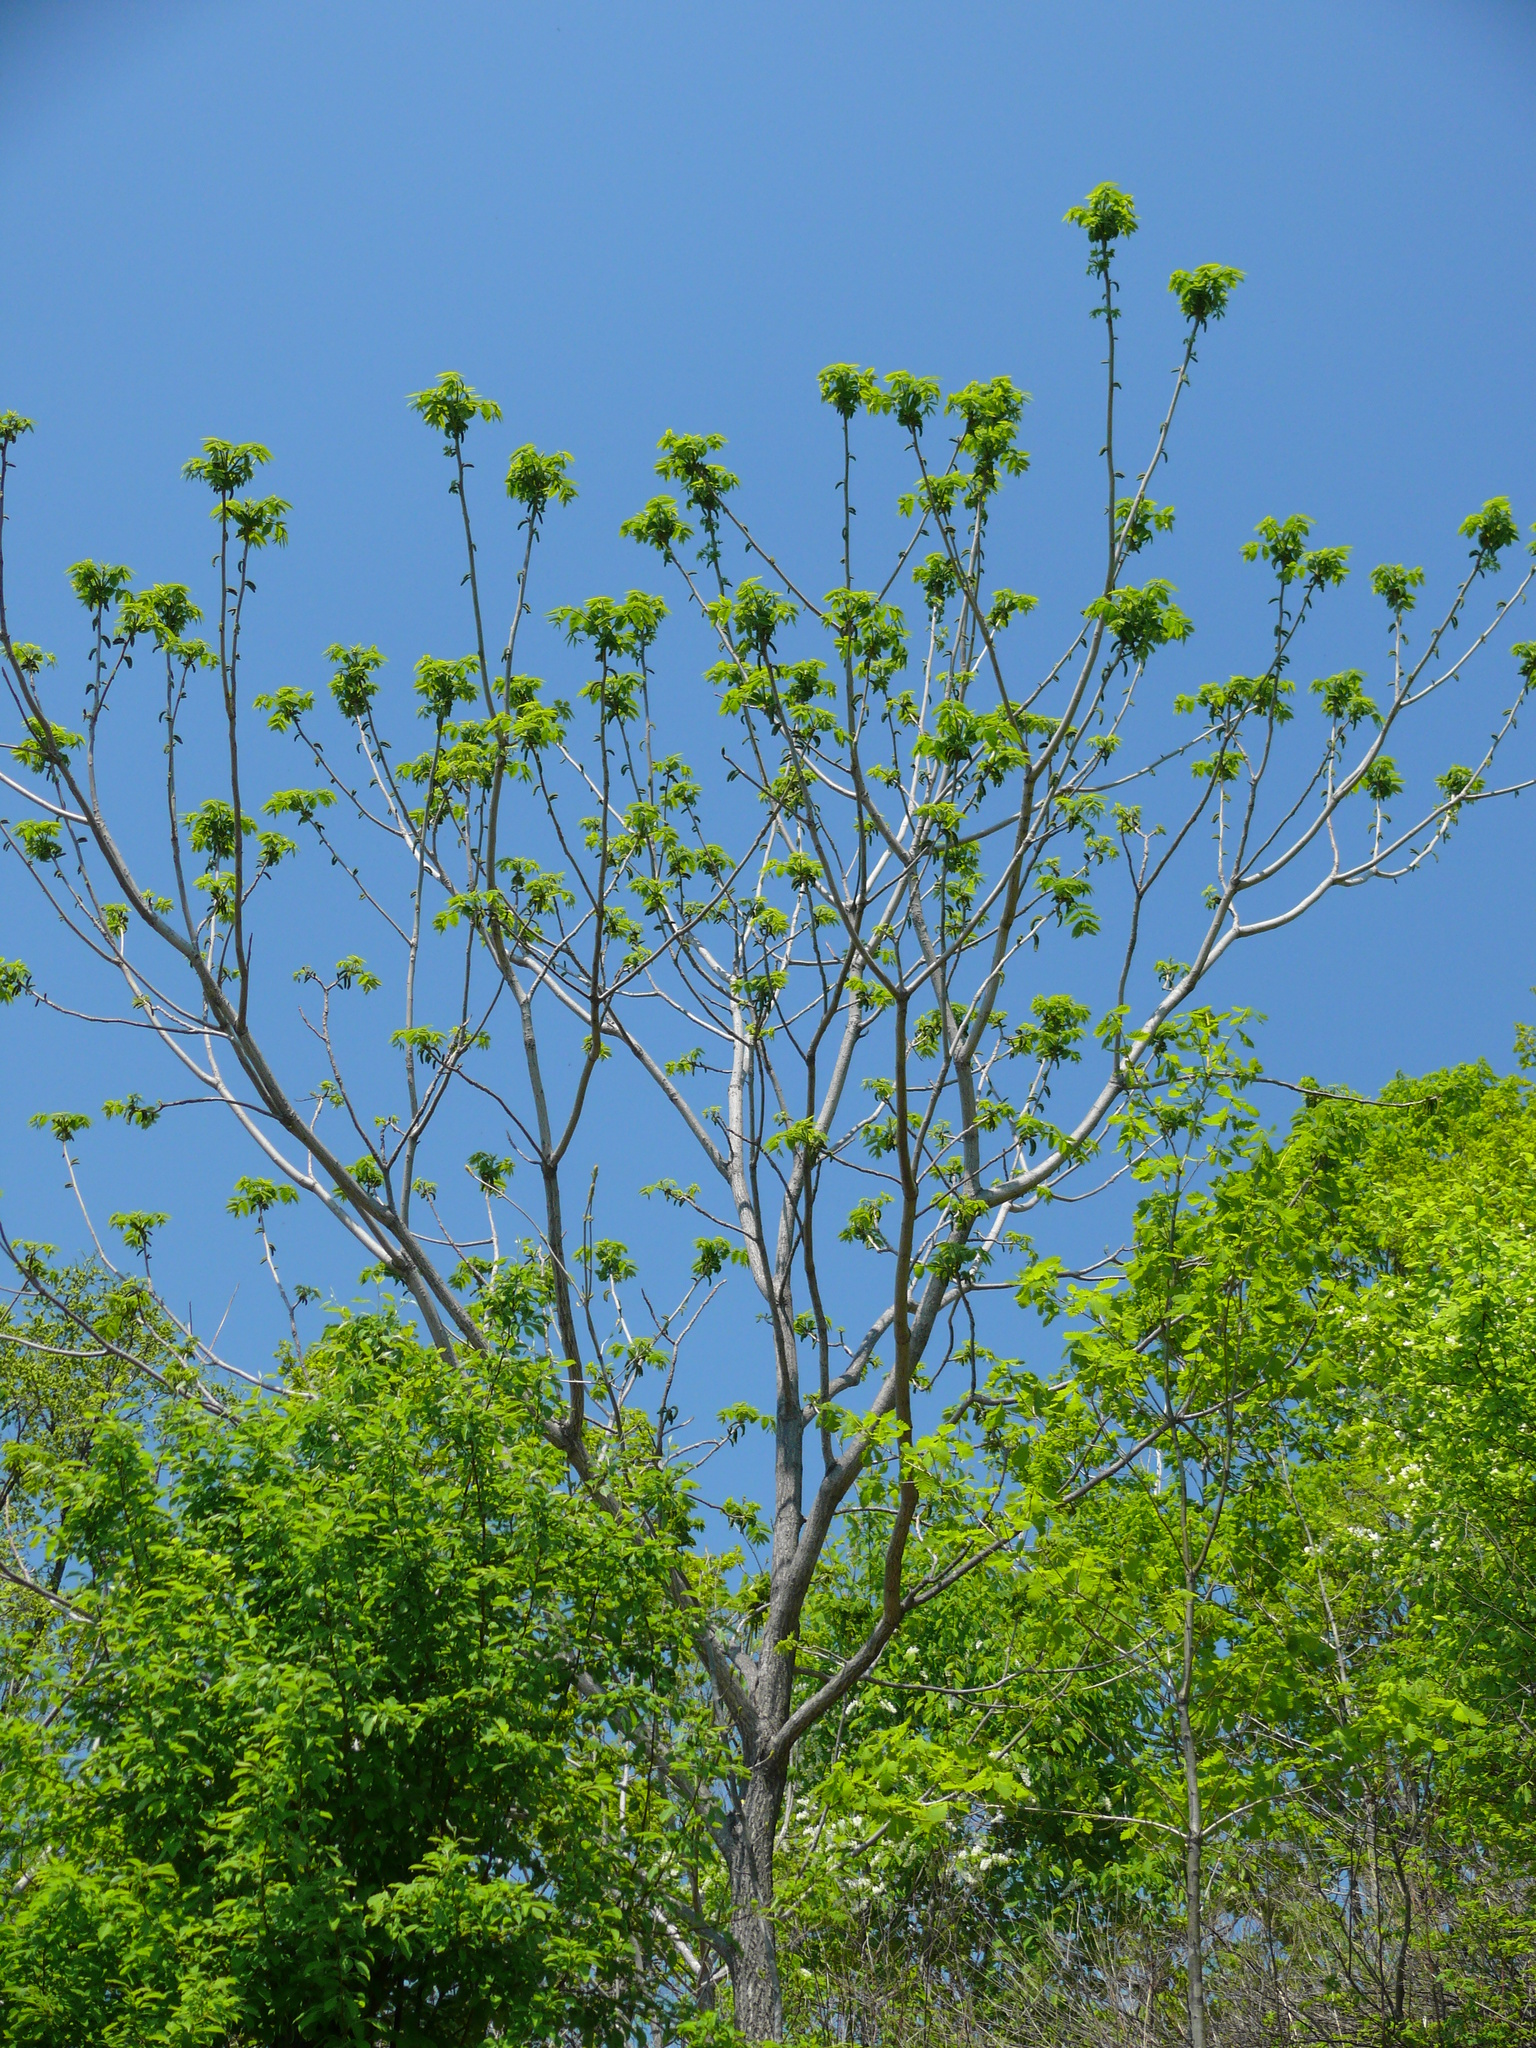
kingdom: Plantae
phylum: Tracheophyta
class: Magnoliopsida
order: Fagales
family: Juglandaceae
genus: Juglans
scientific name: Juglans mandshurica
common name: Manchurian walnut
